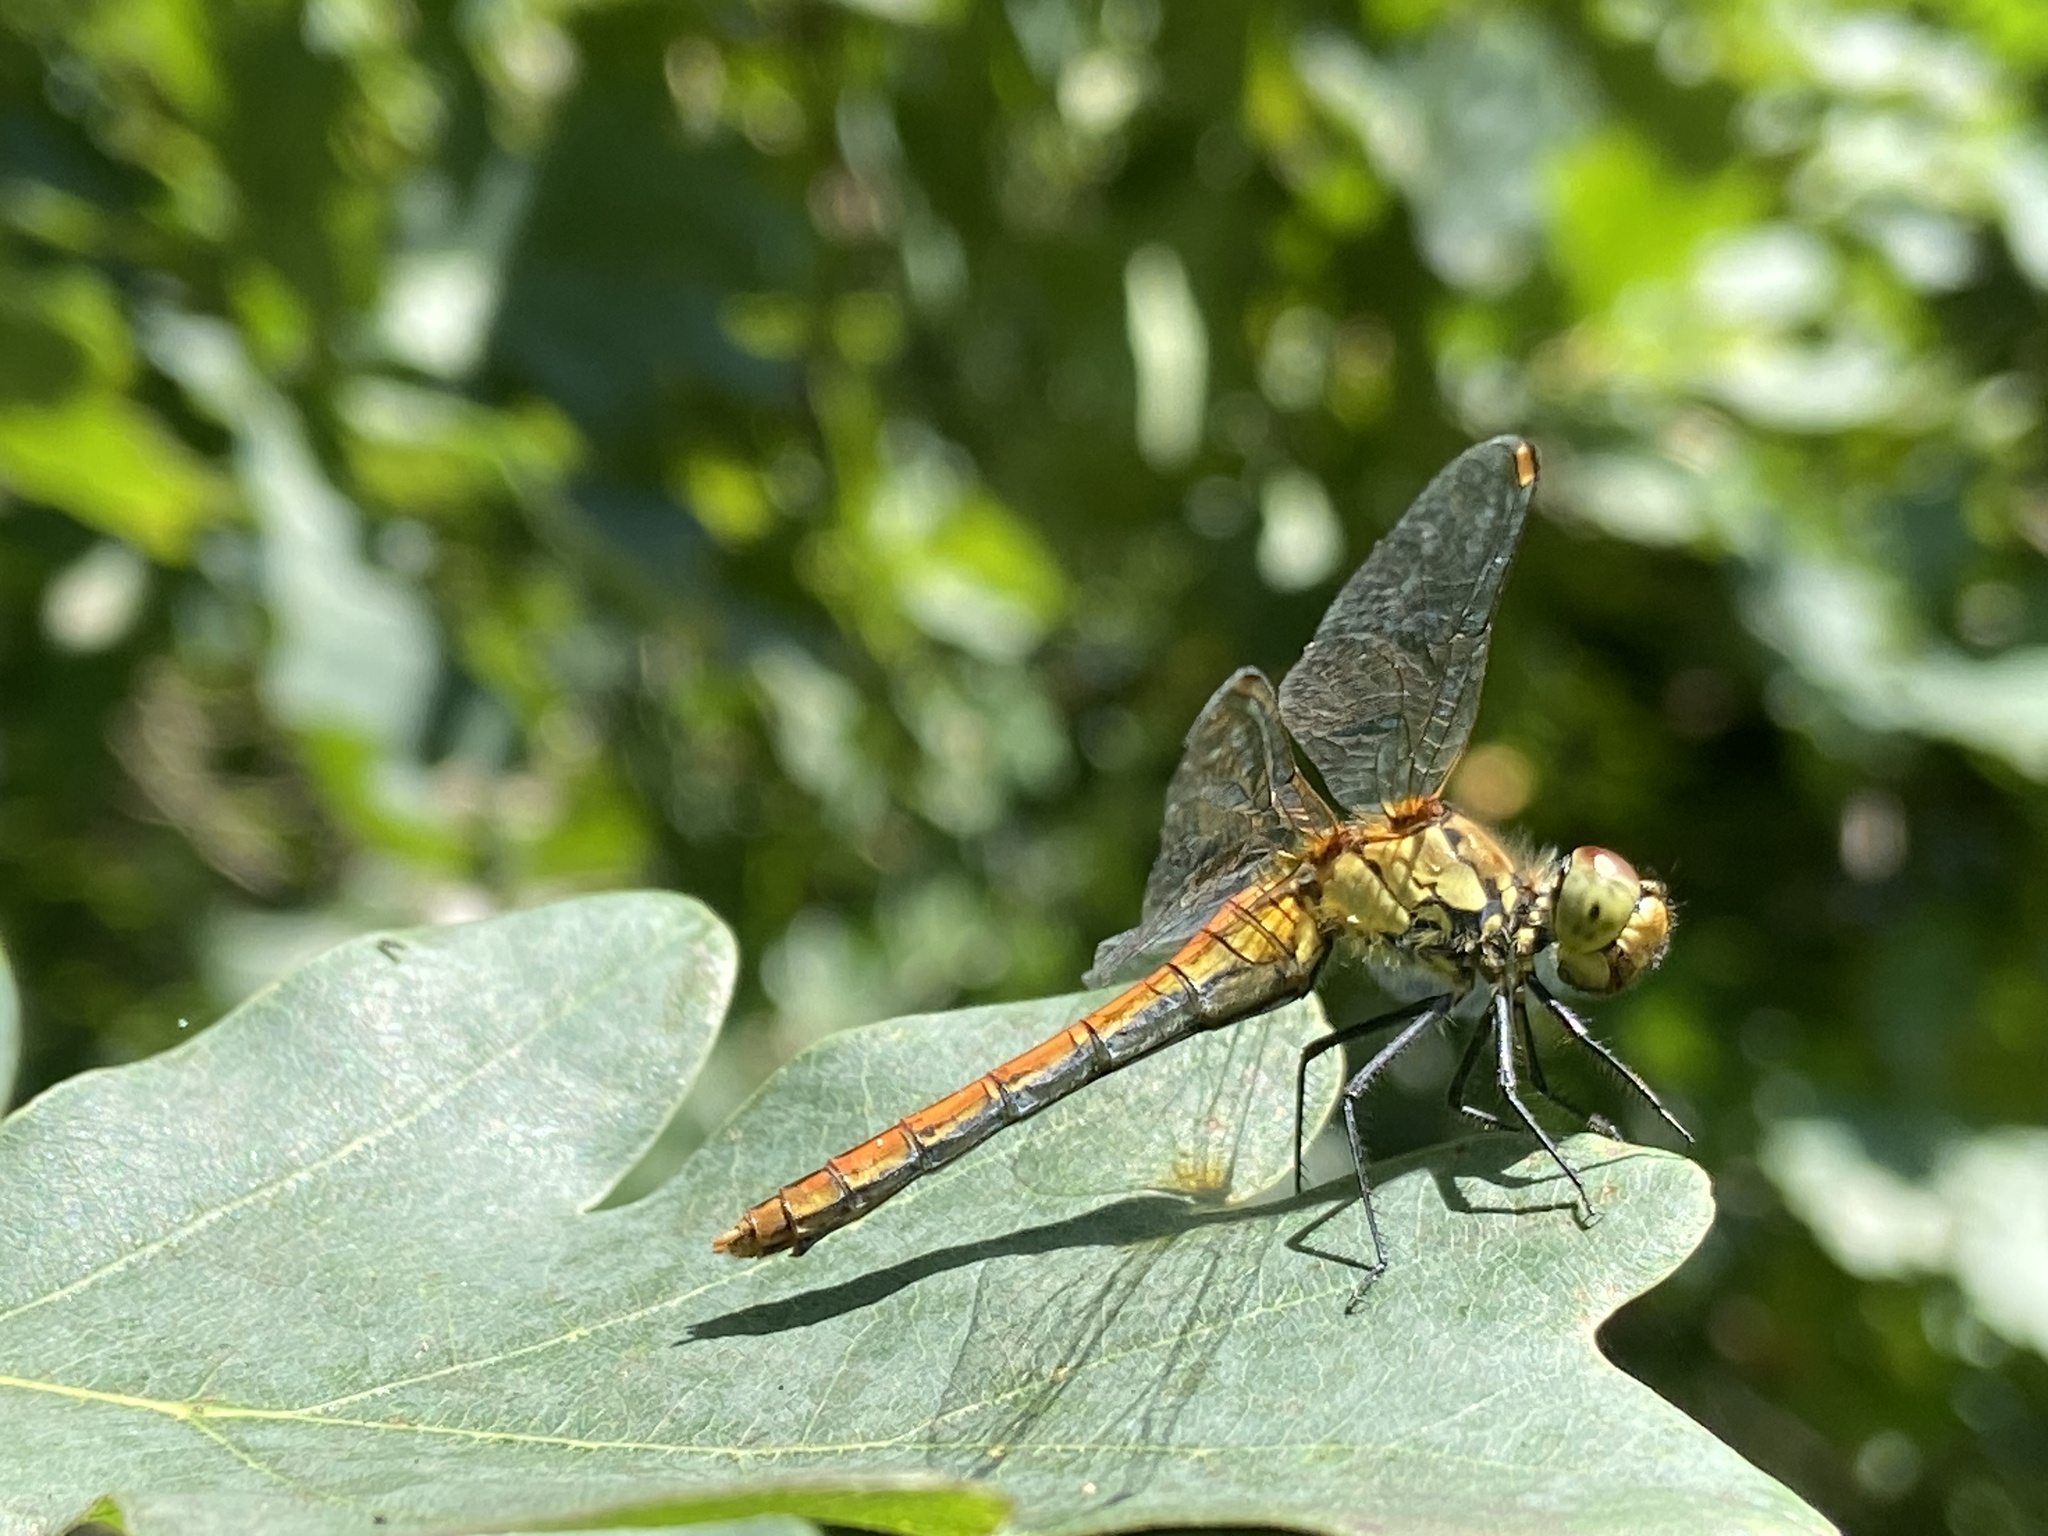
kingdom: Animalia
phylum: Arthropoda
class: Insecta
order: Odonata
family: Libellulidae
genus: Sympetrum
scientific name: Sympetrum sanguineum
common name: Ruddy darter
